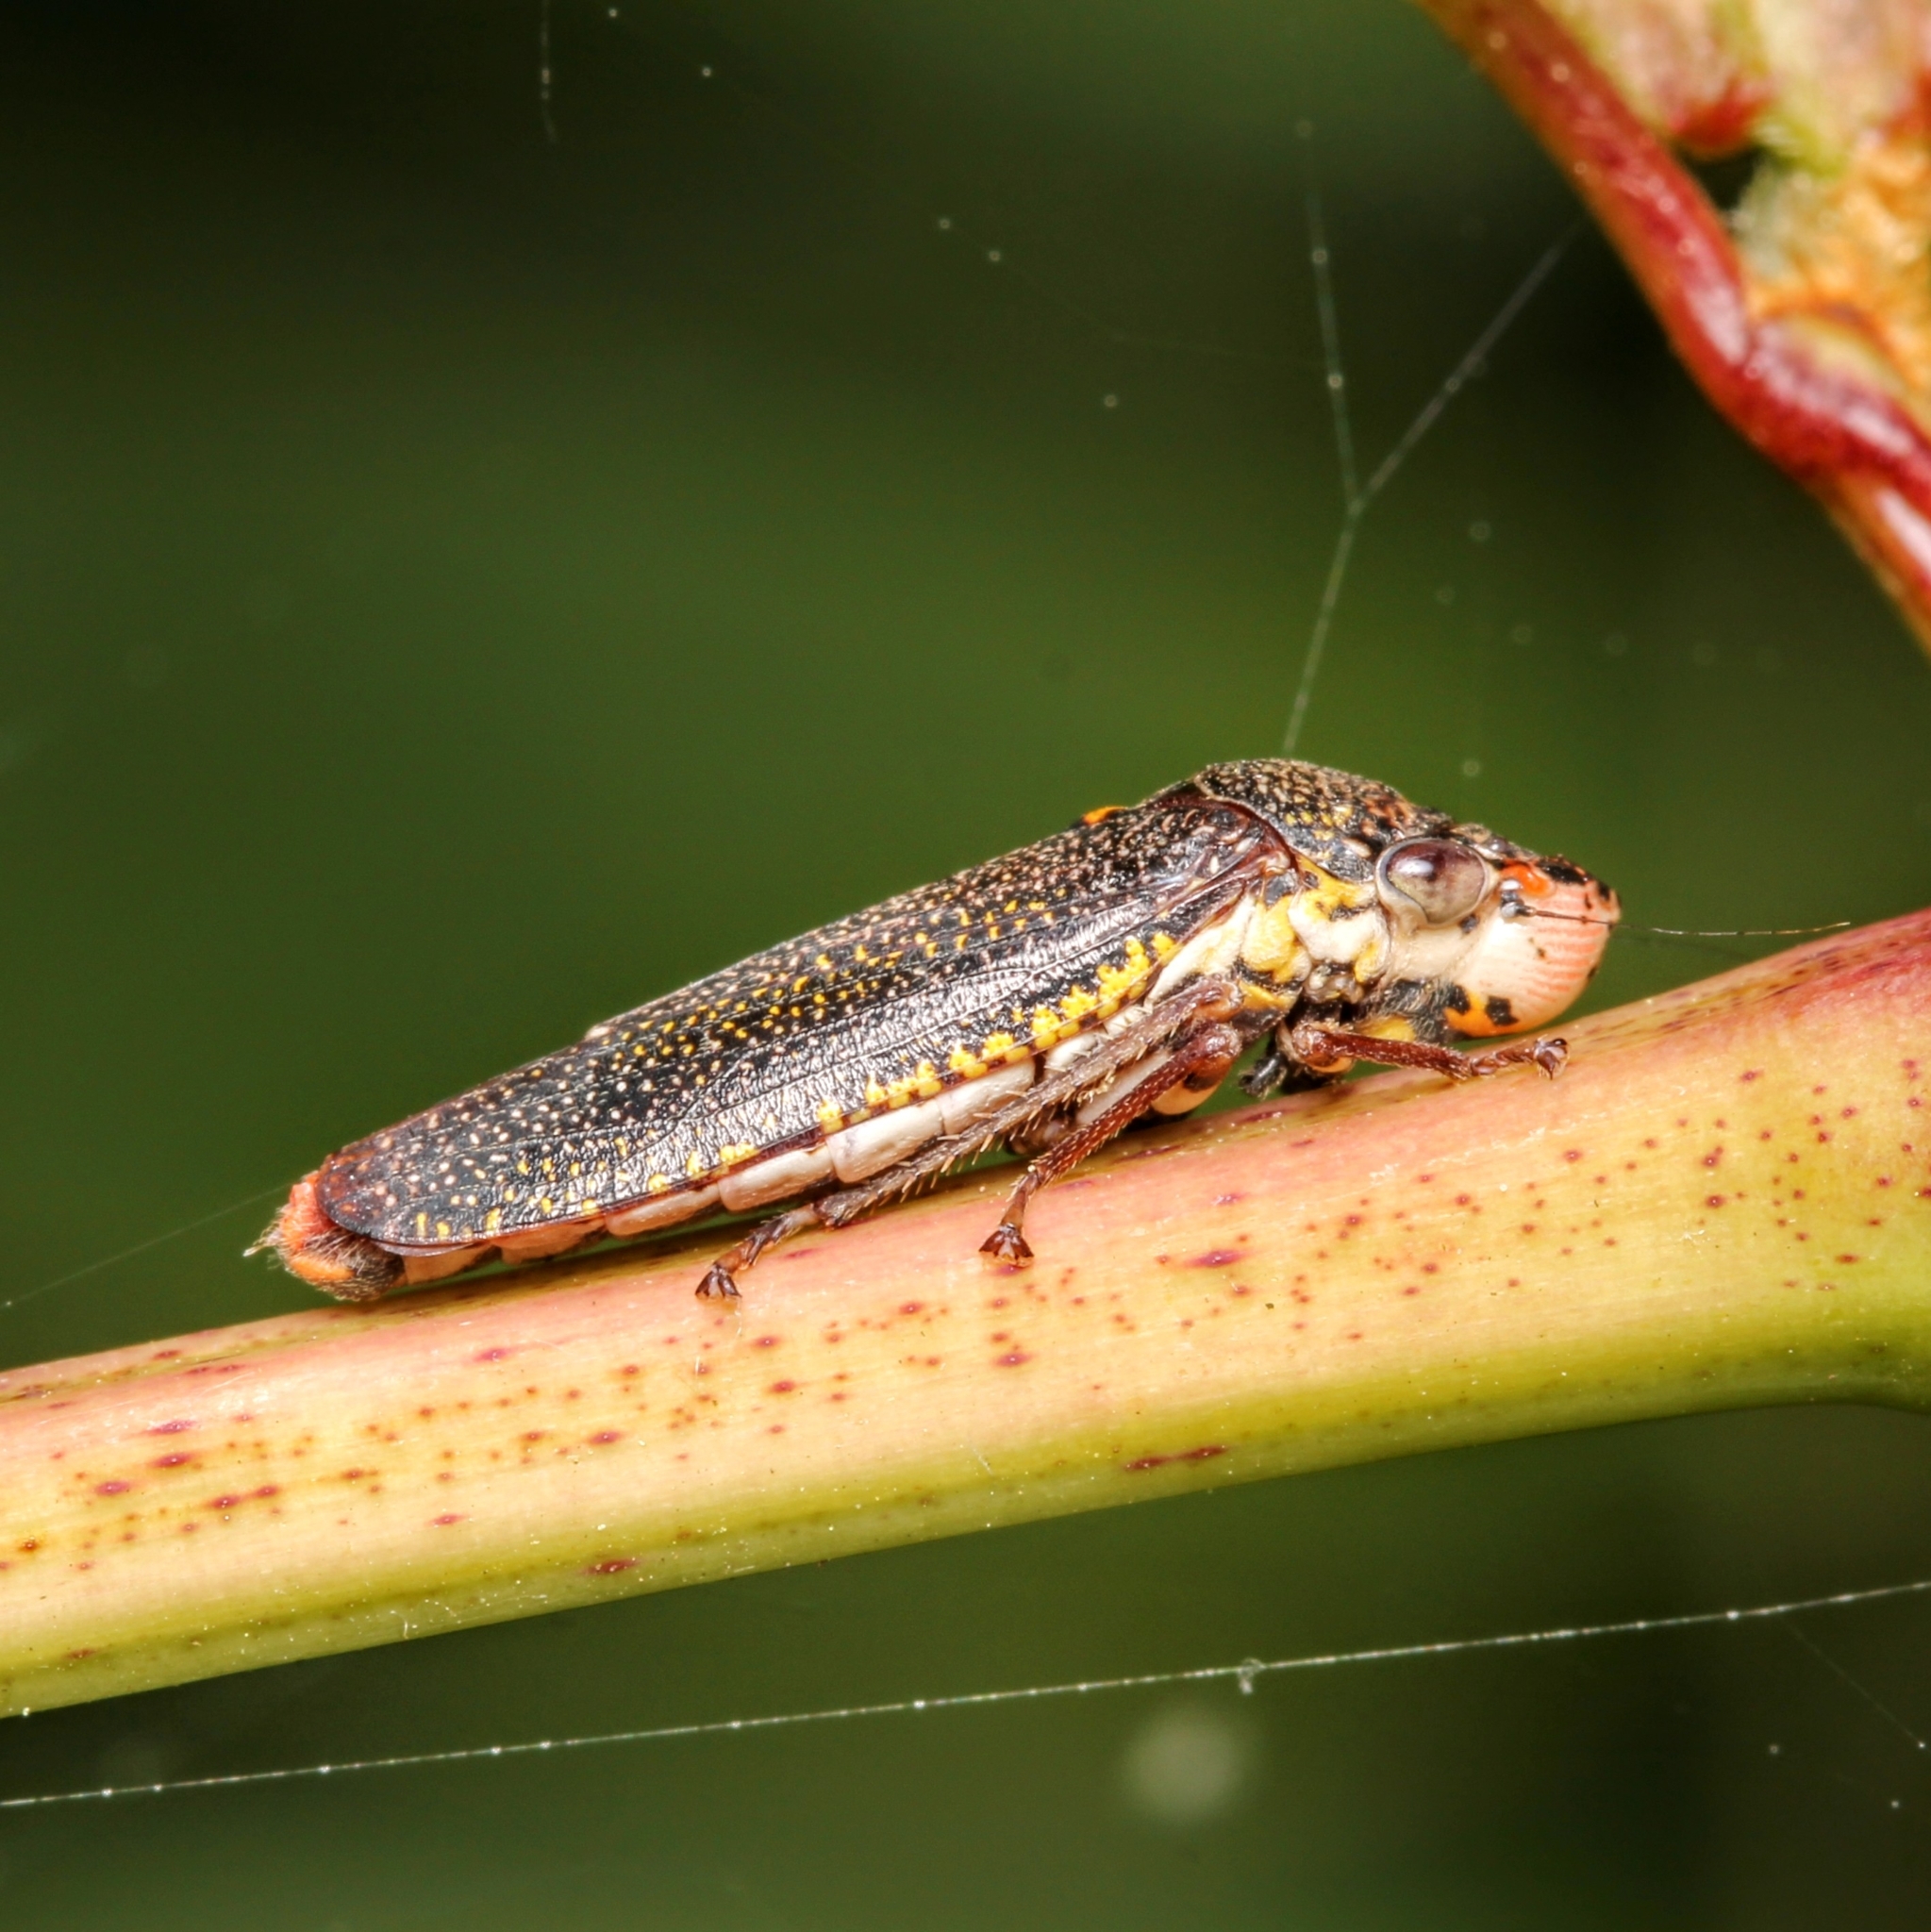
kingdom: Animalia
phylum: Arthropoda
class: Insecta
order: Hemiptera
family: Cicadellidae
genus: Paraulacizes
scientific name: Paraulacizes irrorata
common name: Speckled sharpshooter
